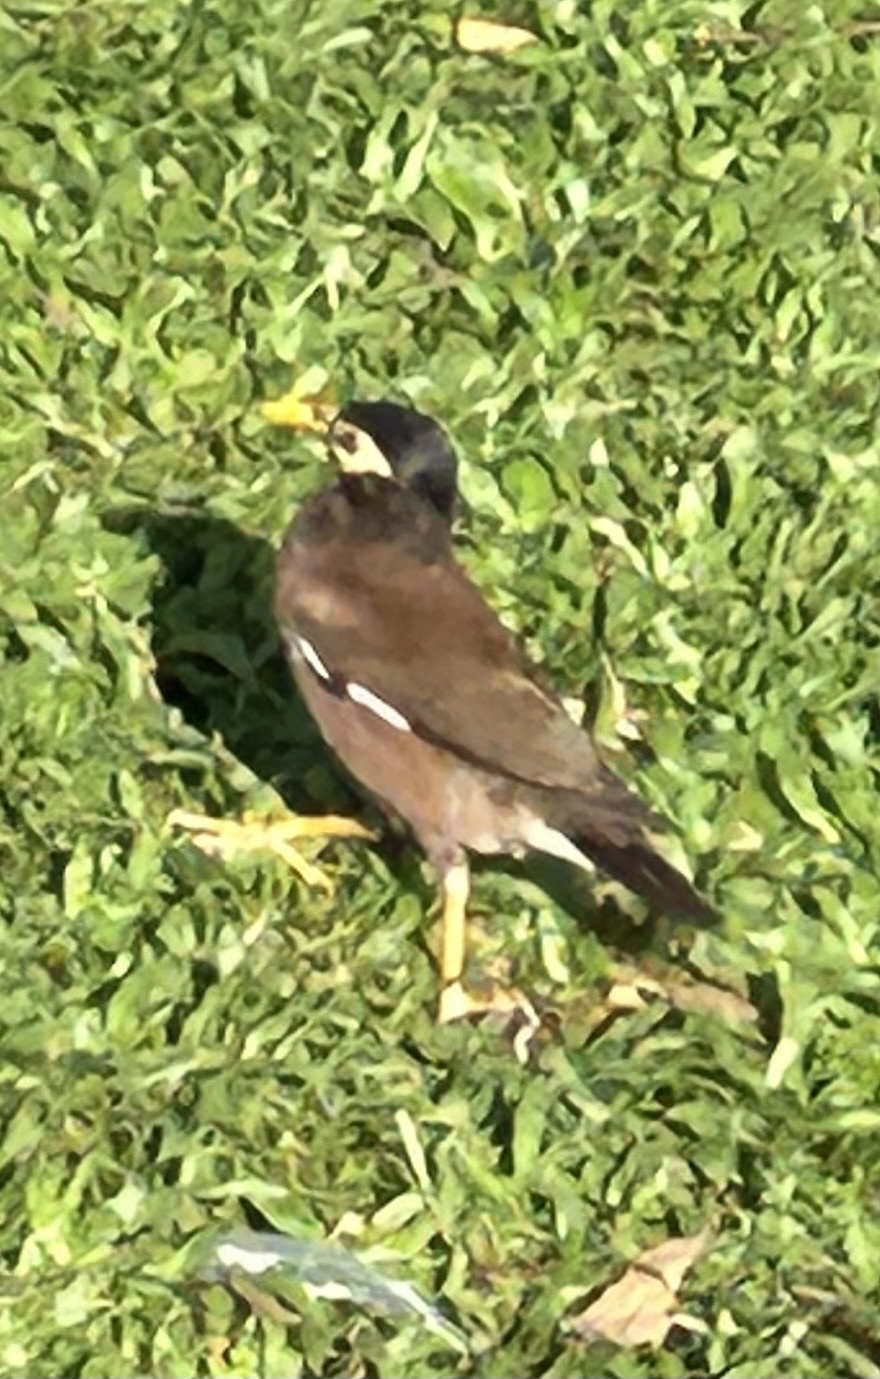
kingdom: Animalia
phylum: Chordata
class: Aves
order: Passeriformes
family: Sturnidae
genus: Acridotheres
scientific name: Acridotheres tristis
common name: Common myna
